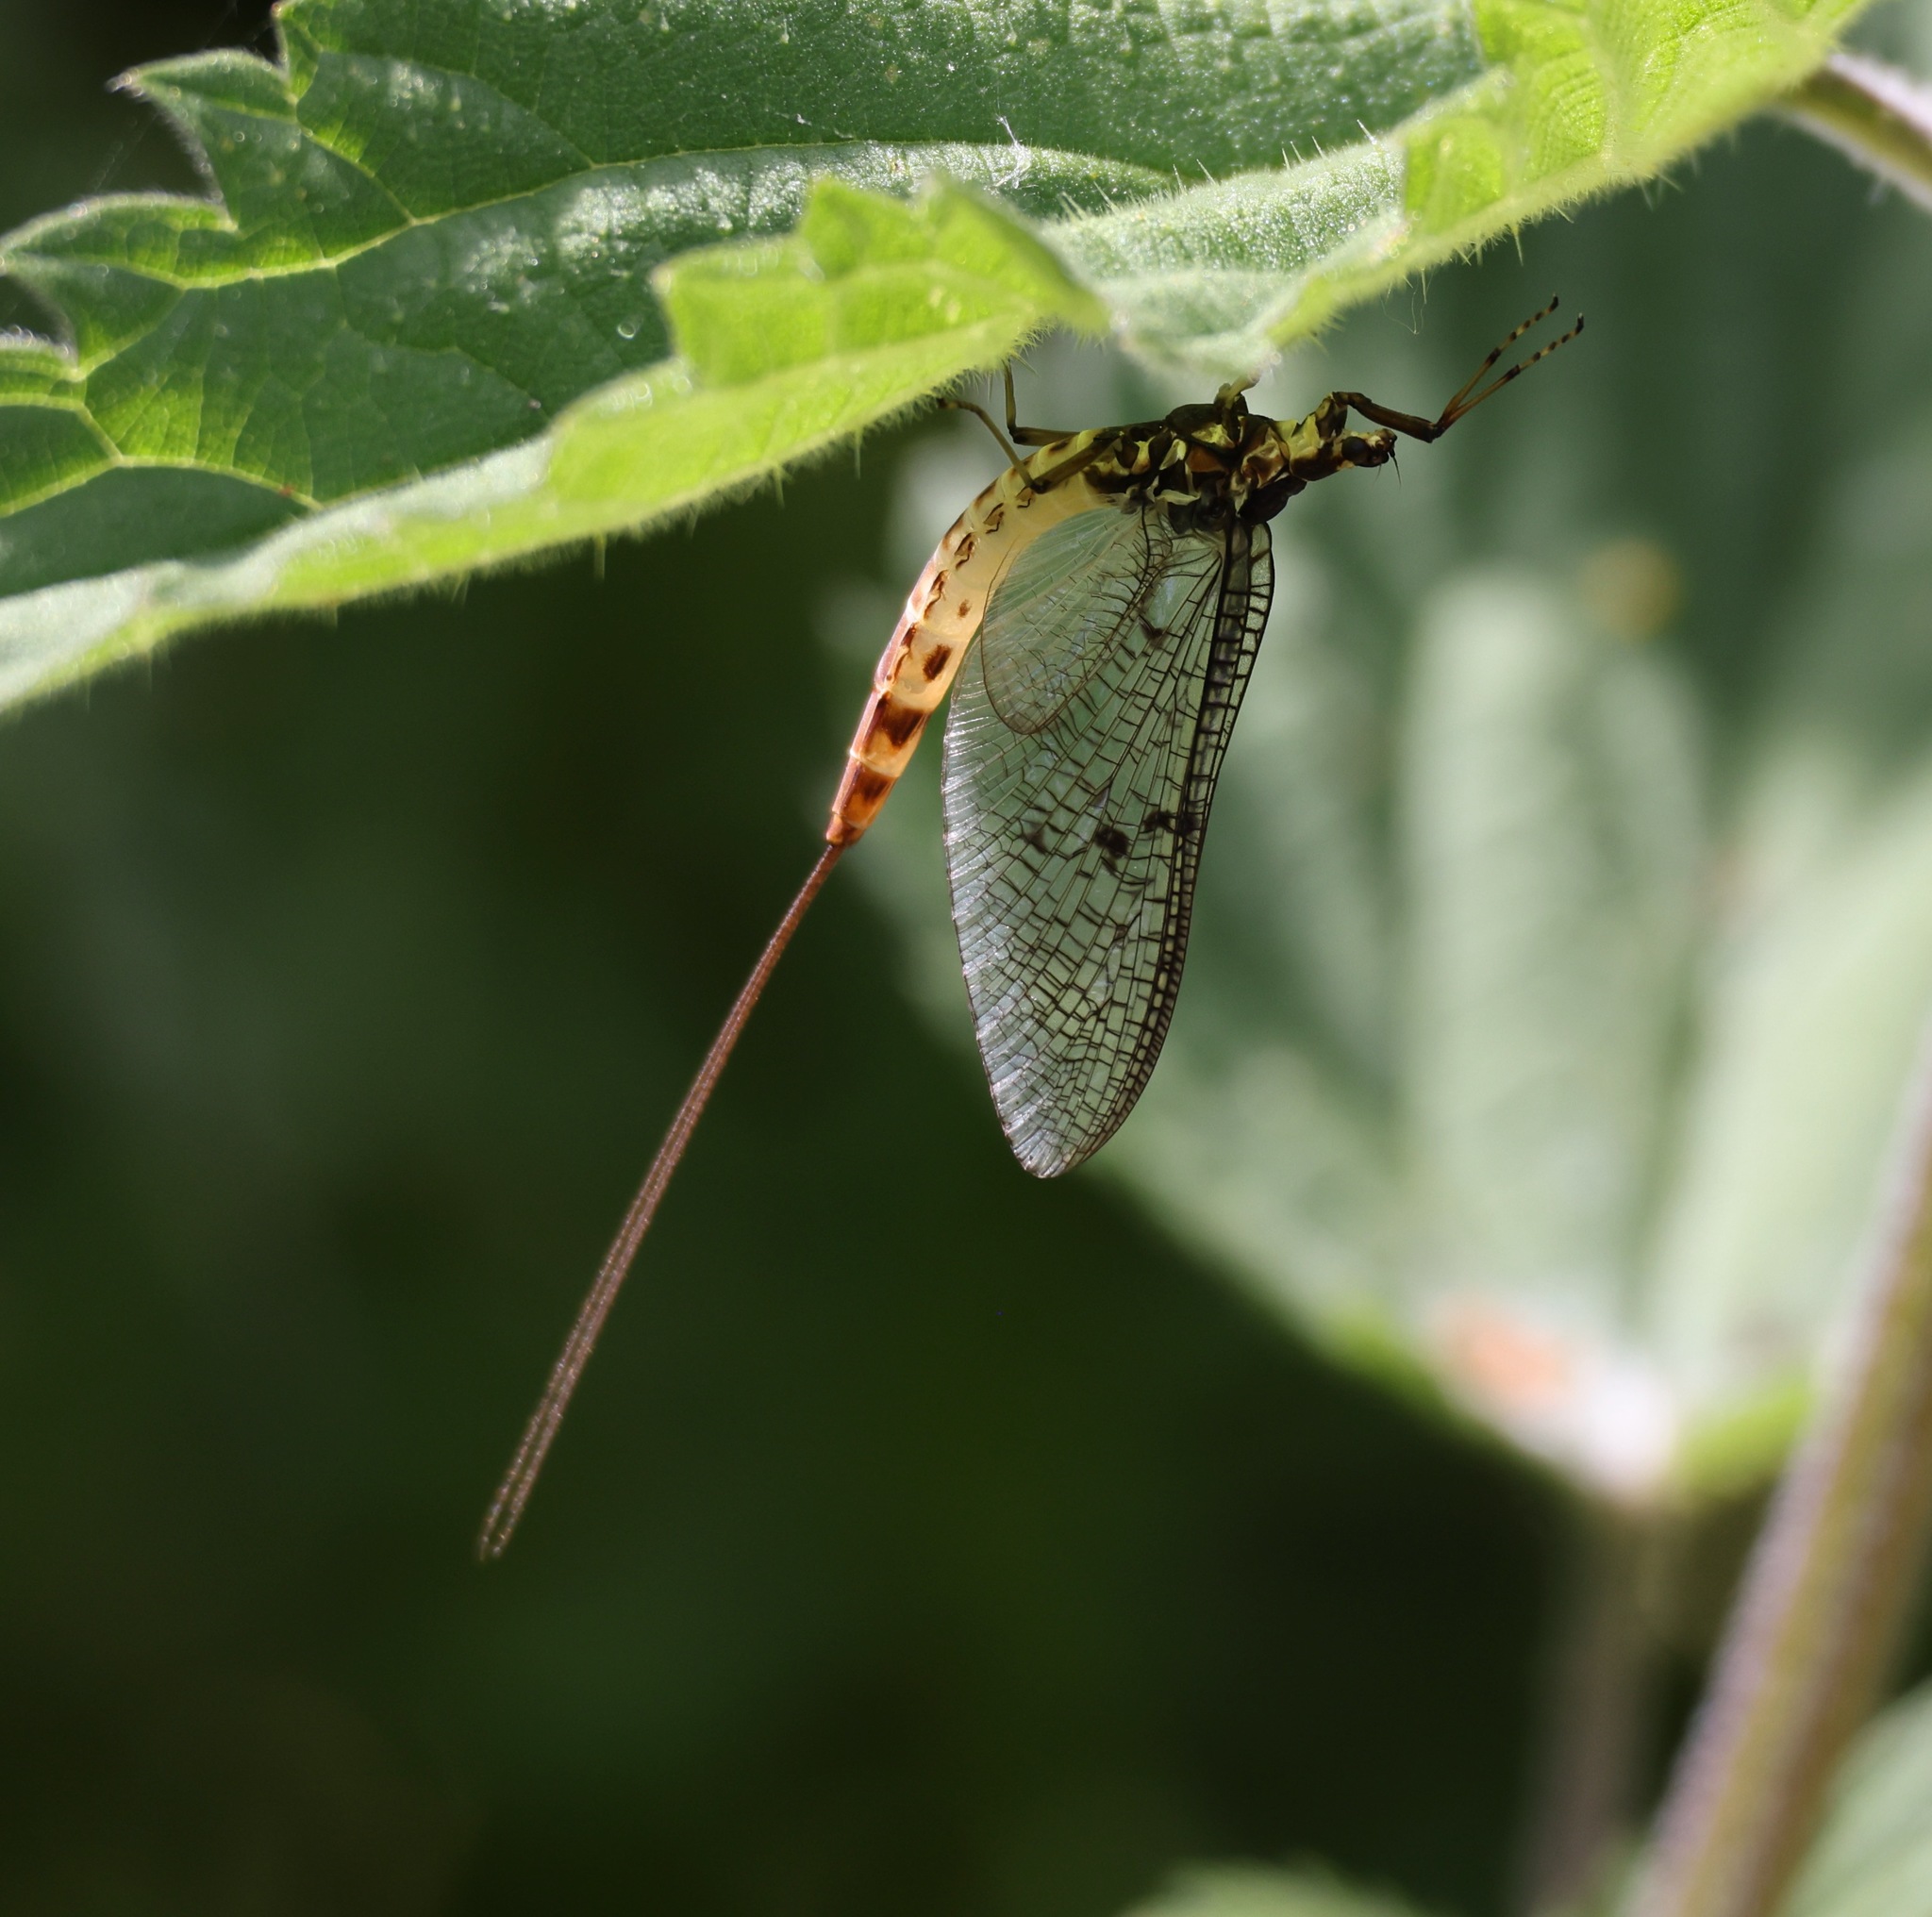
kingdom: Animalia
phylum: Arthropoda
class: Insecta
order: Ephemeroptera
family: Ephemeridae
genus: Ephemera
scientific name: Ephemera danica
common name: Green dun
